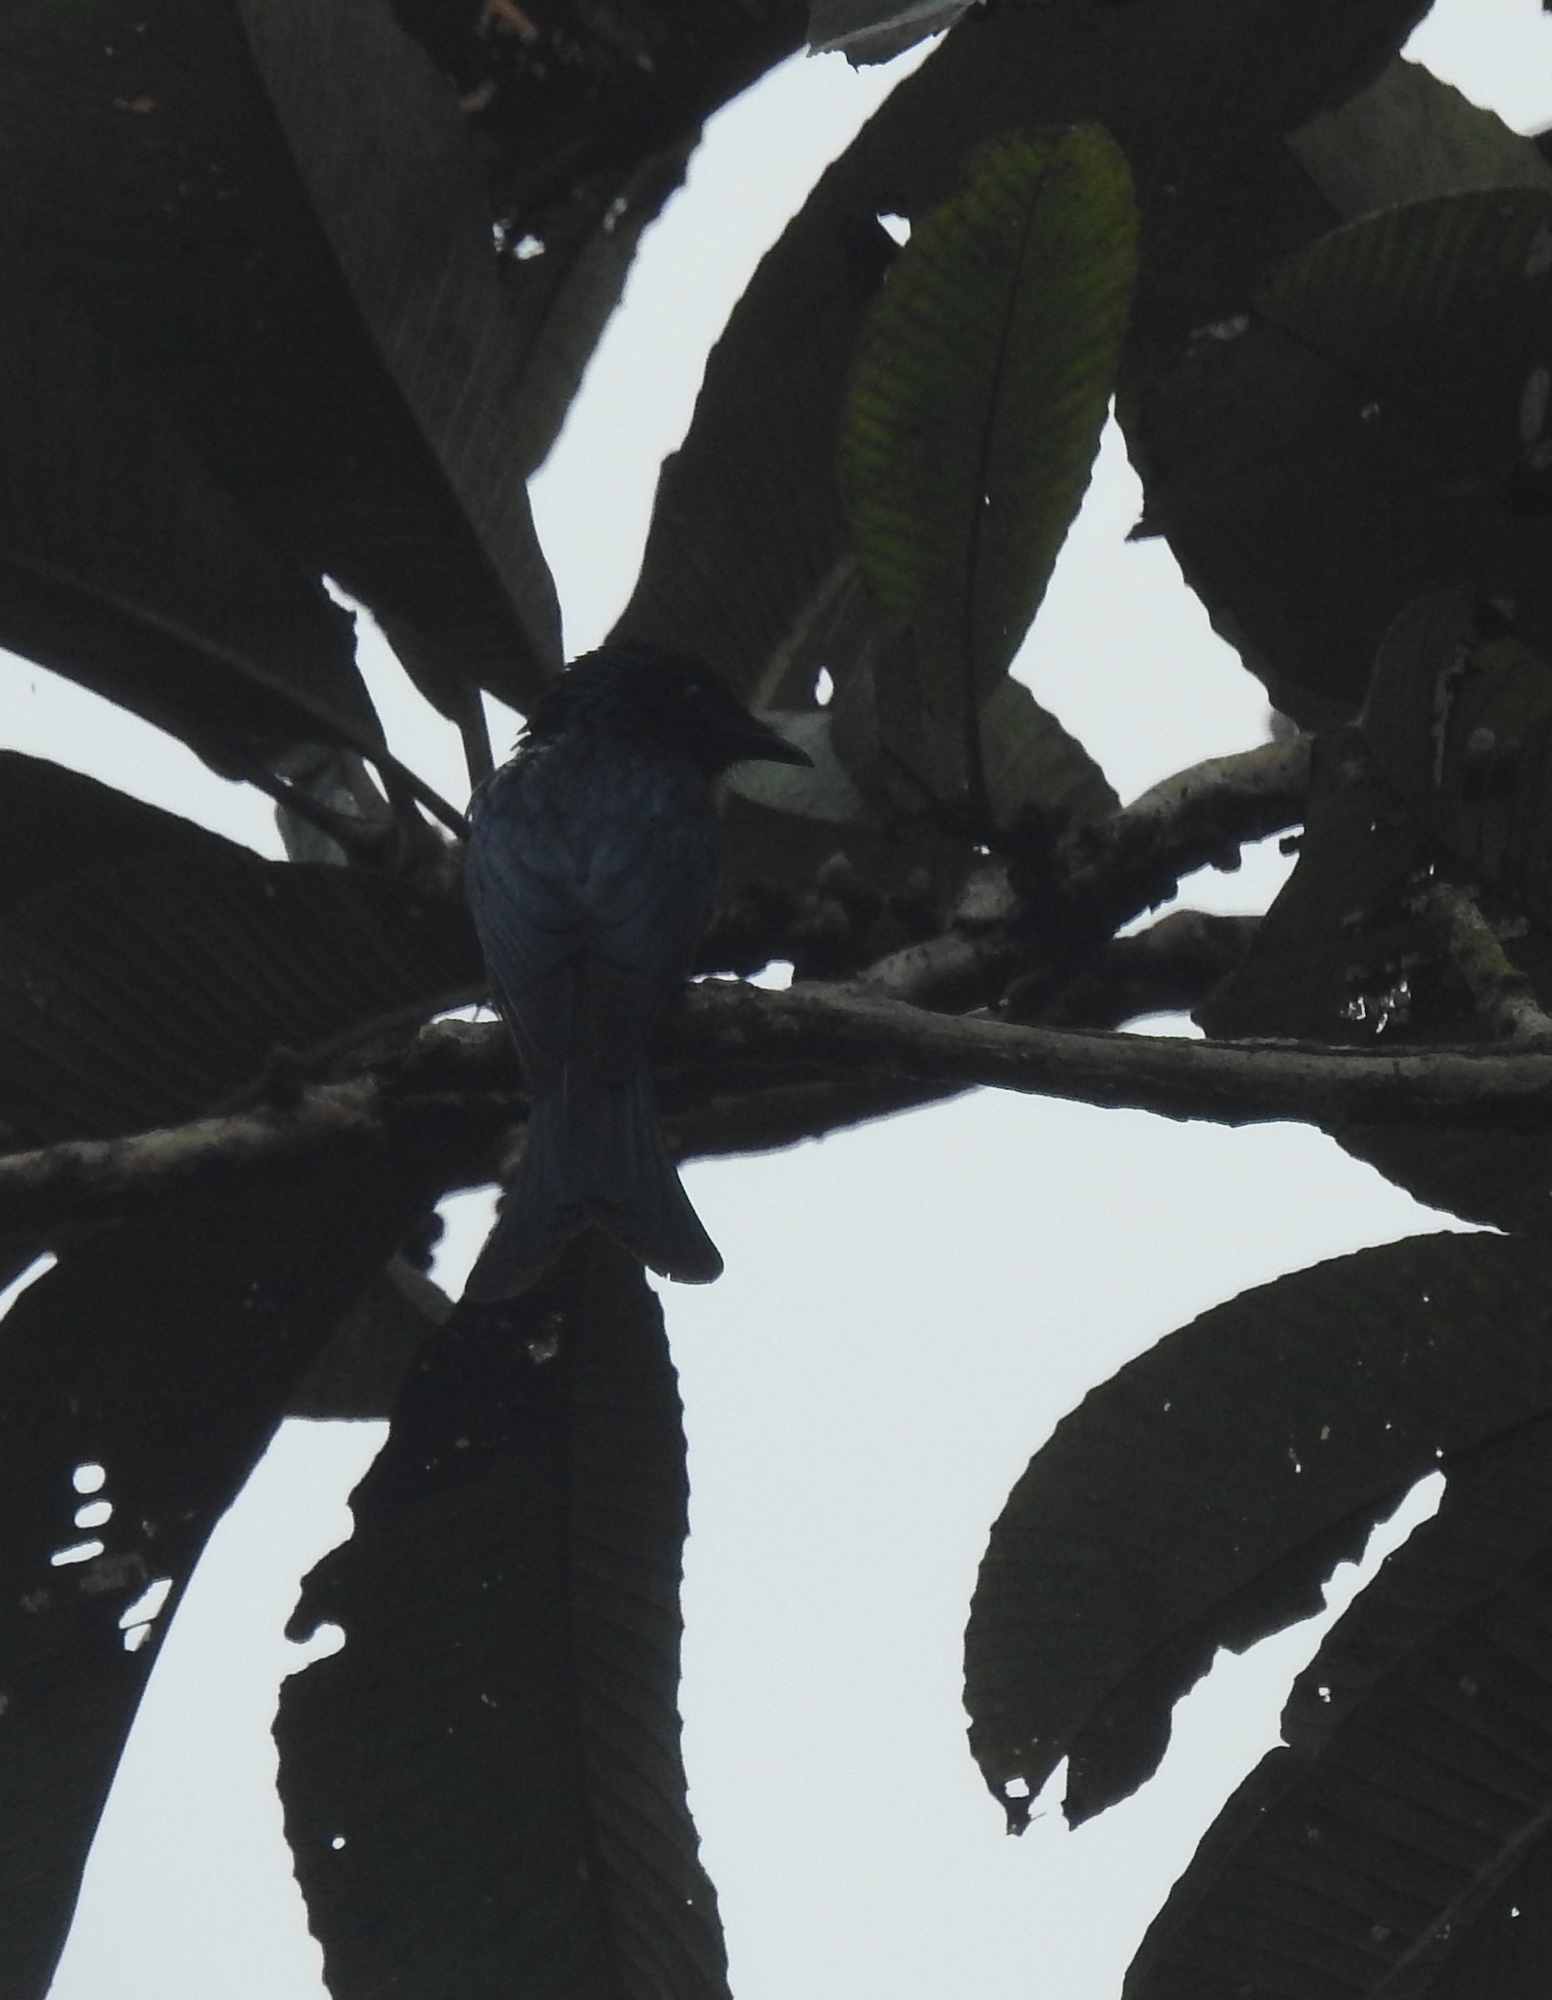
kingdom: Animalia
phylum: Chordata
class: Aves
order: Passeriformes
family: Dicruridae
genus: Dicrurus
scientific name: Dicrurus aeneus
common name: Bronzed drongo
